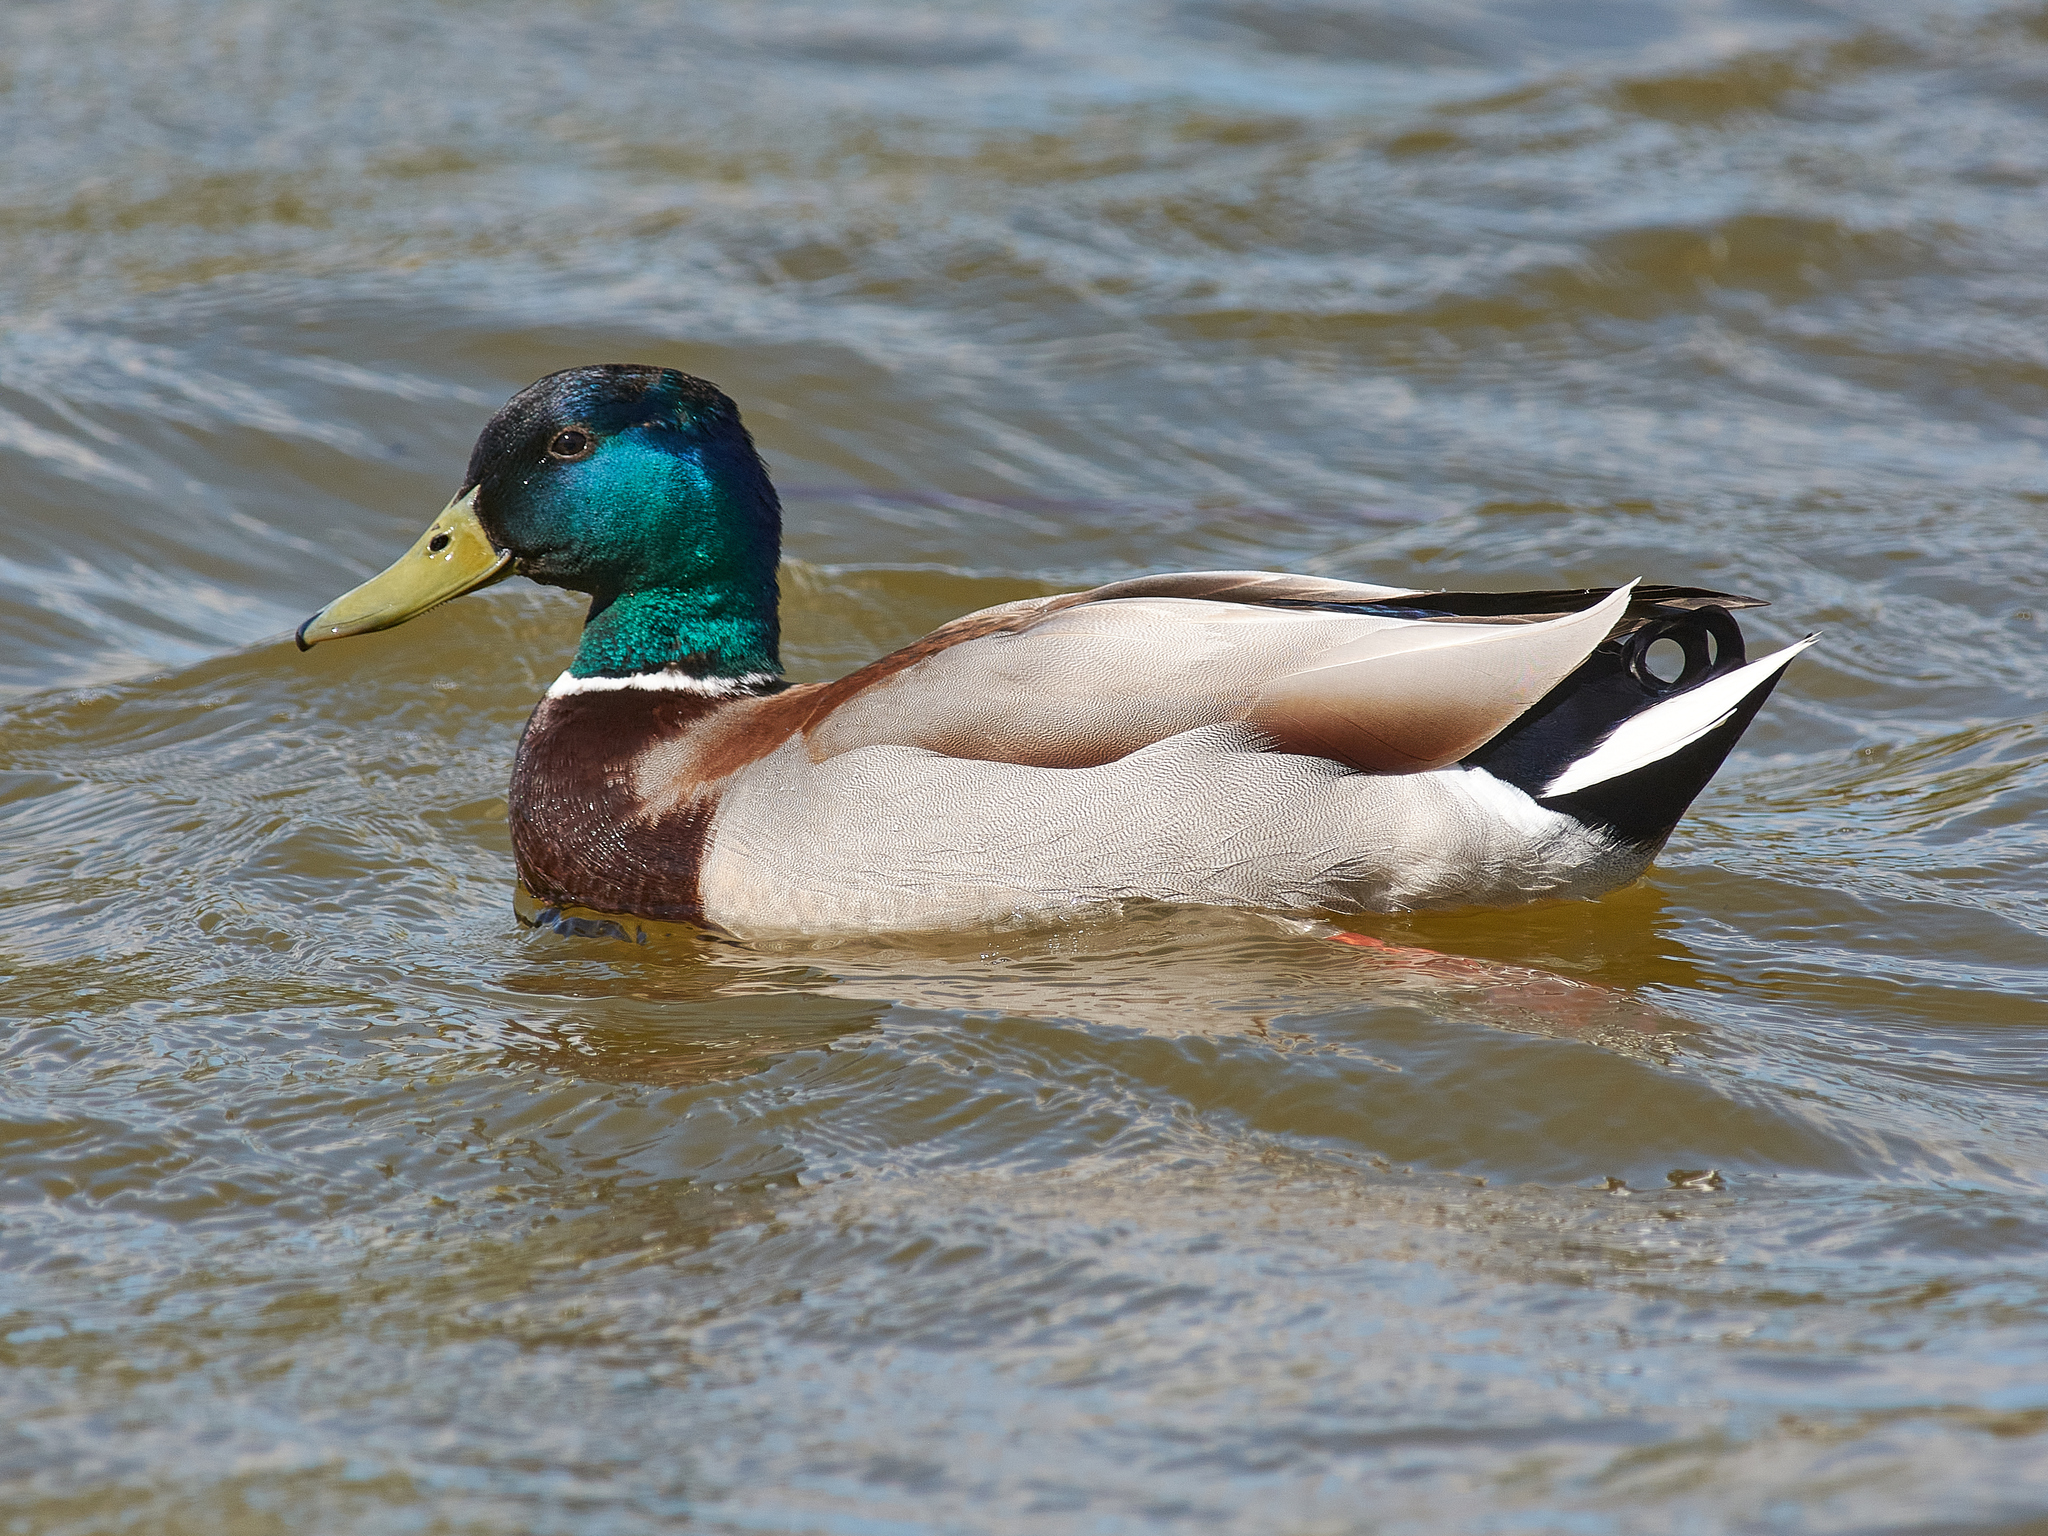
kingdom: Animalia
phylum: Chordata
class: Aves
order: Anseriformes
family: Anatidae
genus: Anas
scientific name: Anas platyrhynchos
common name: Mallard
